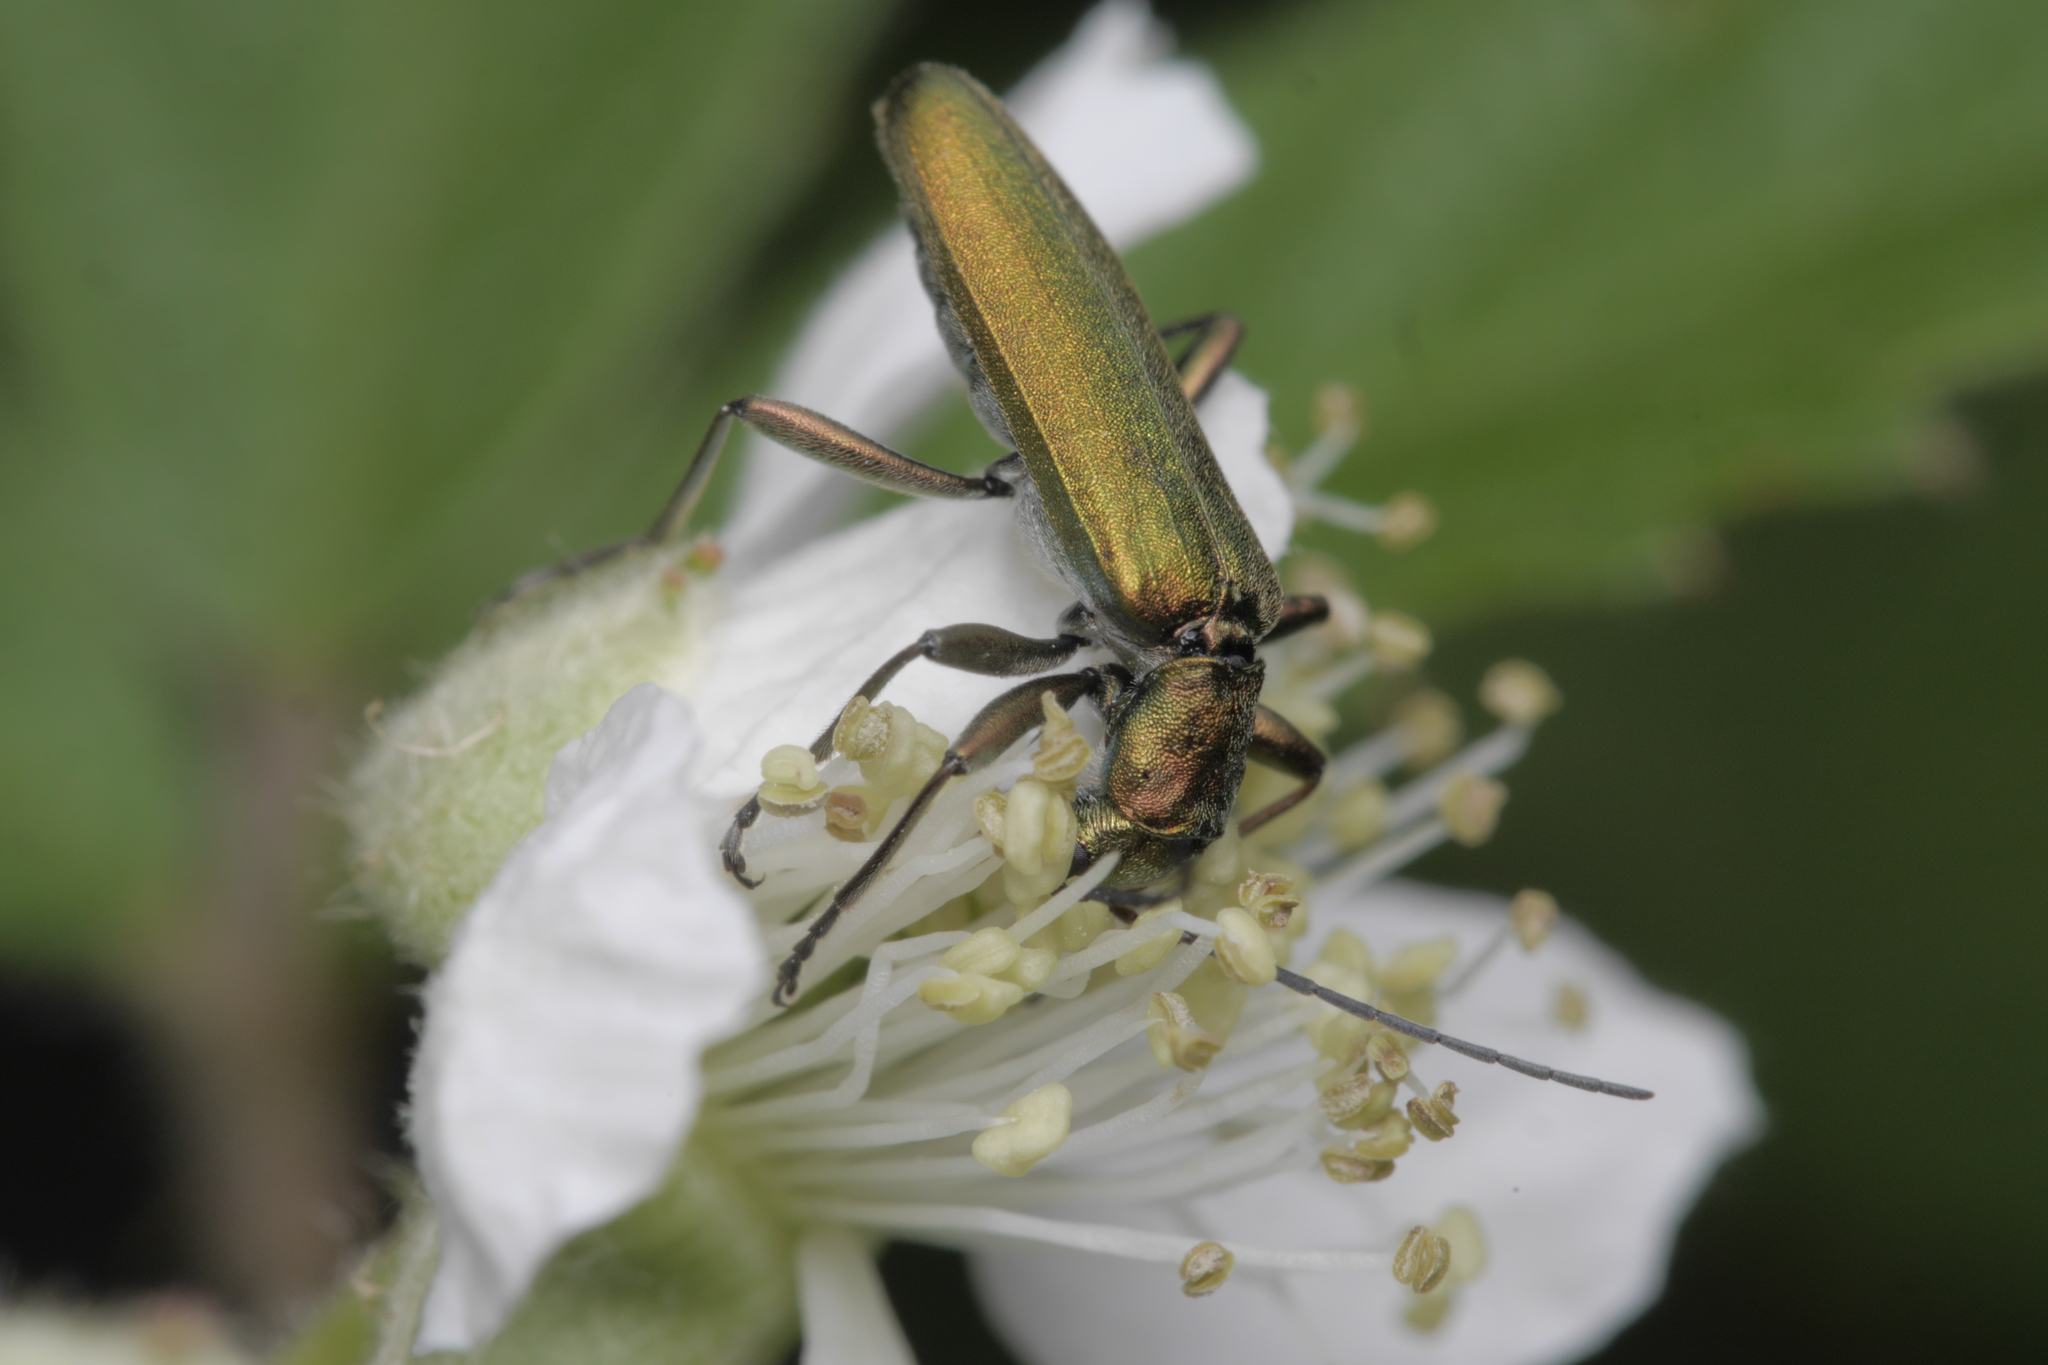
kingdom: Animalia
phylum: Arthropoda
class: Insecta
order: Coleoptera
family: Oedemeridae
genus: Chrysanthia
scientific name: Chrysanthia viridissima
